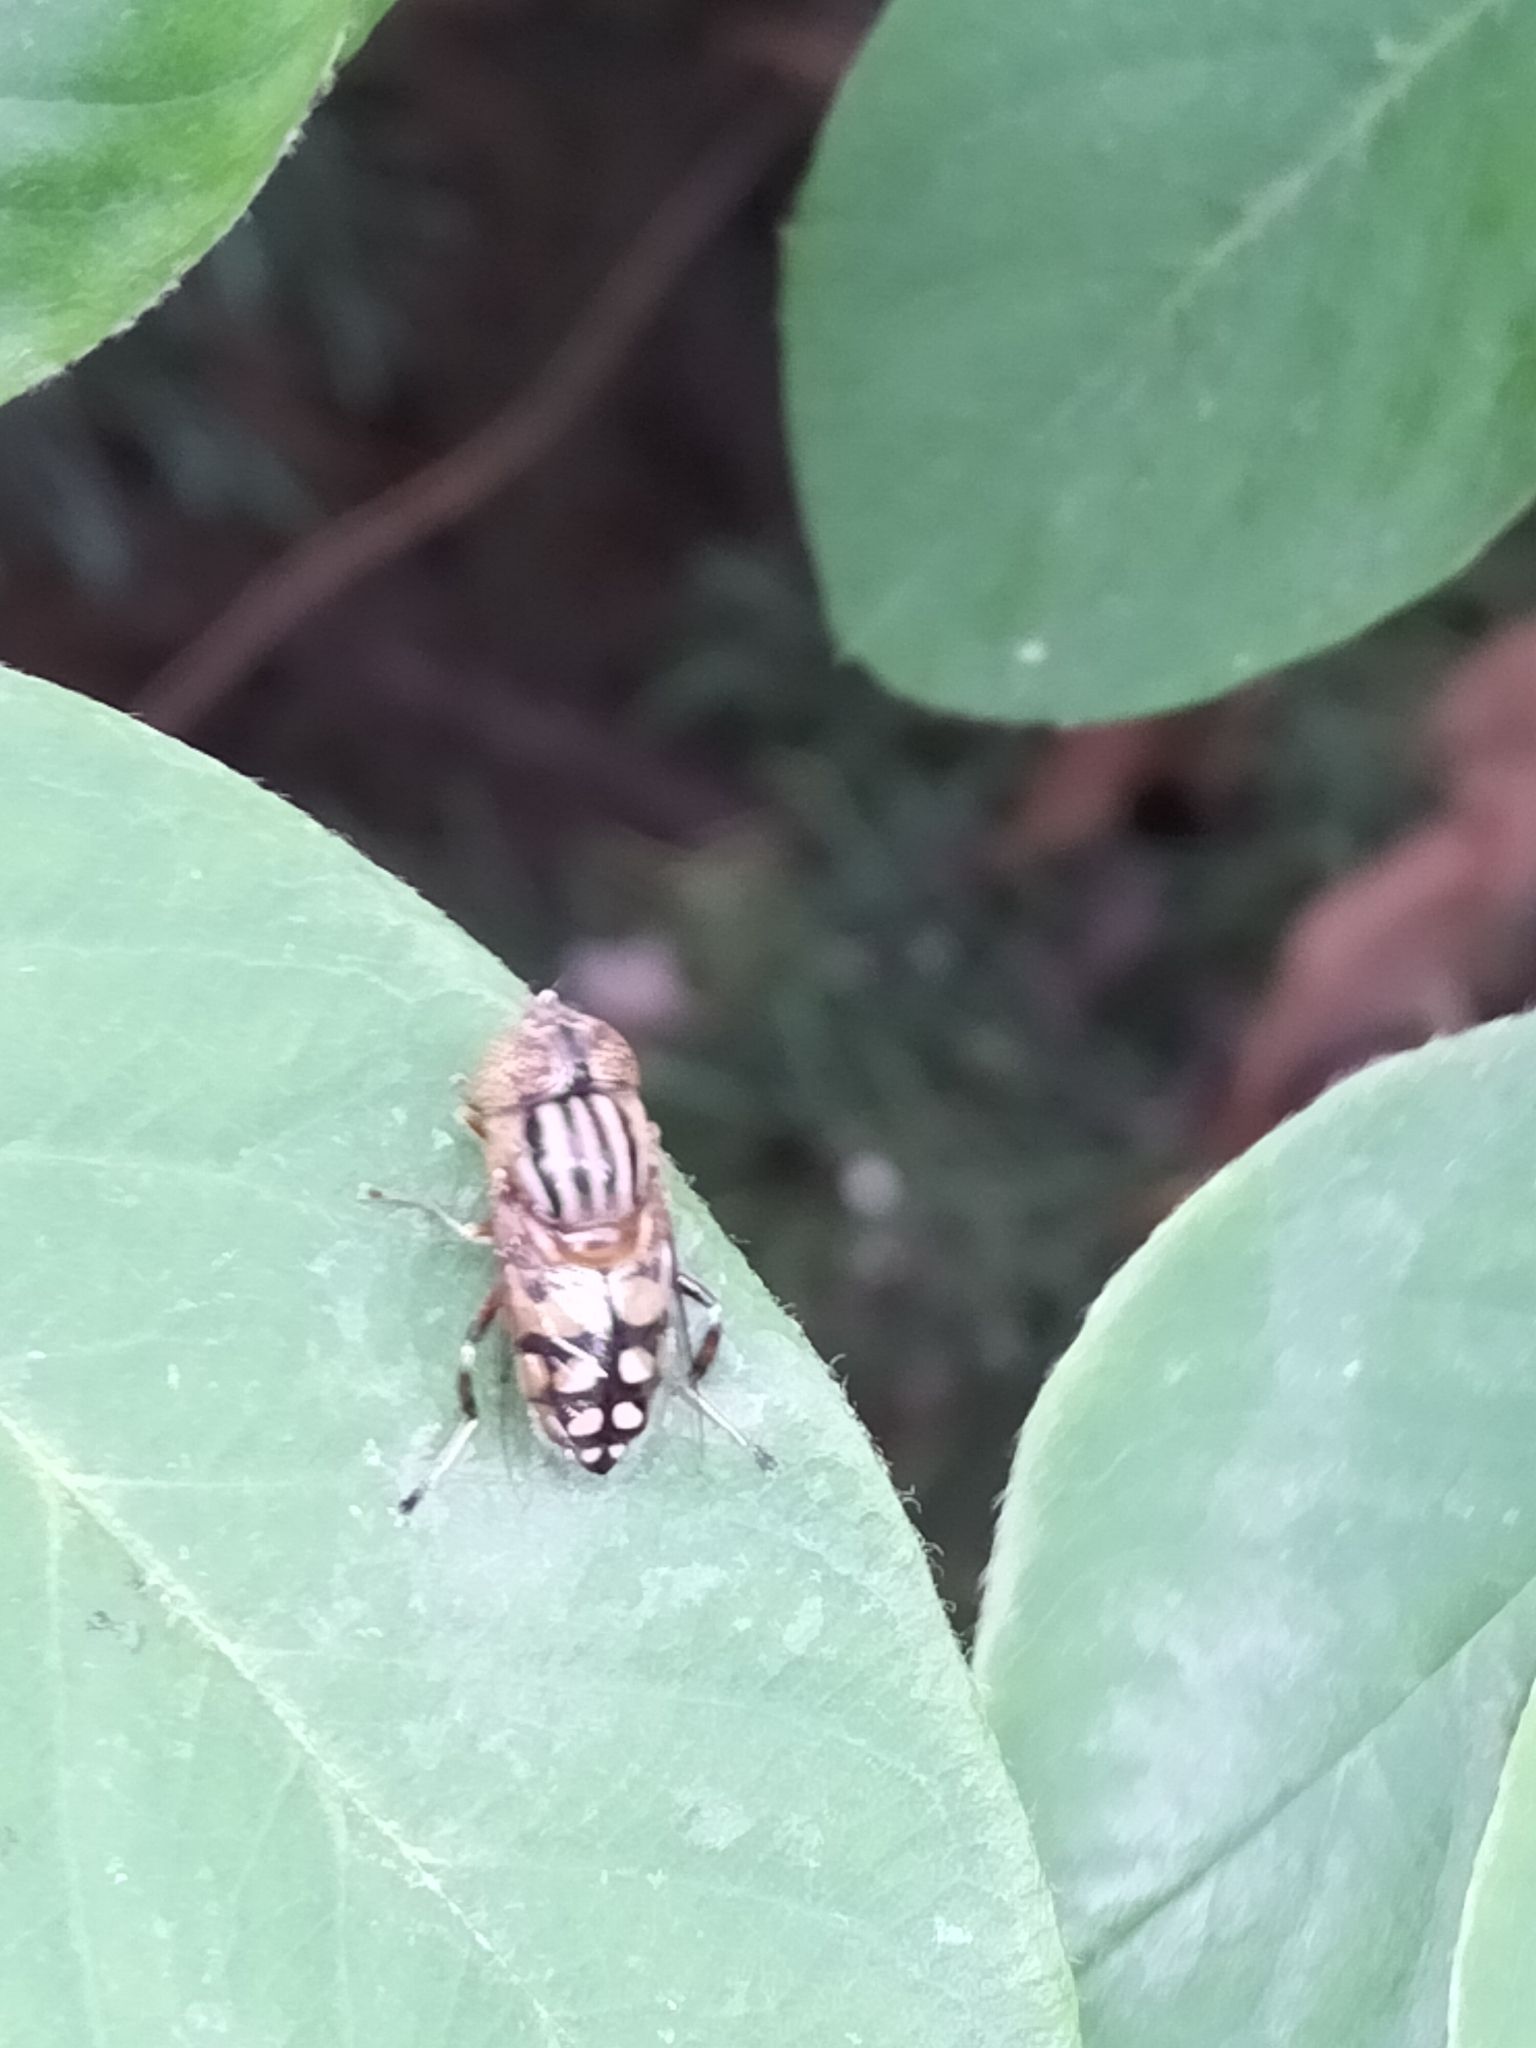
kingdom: Animalia
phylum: Arthropoda
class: Insecta
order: Diptera
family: Syrphidae
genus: Eristalinus
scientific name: Eristalinus punctulatus
